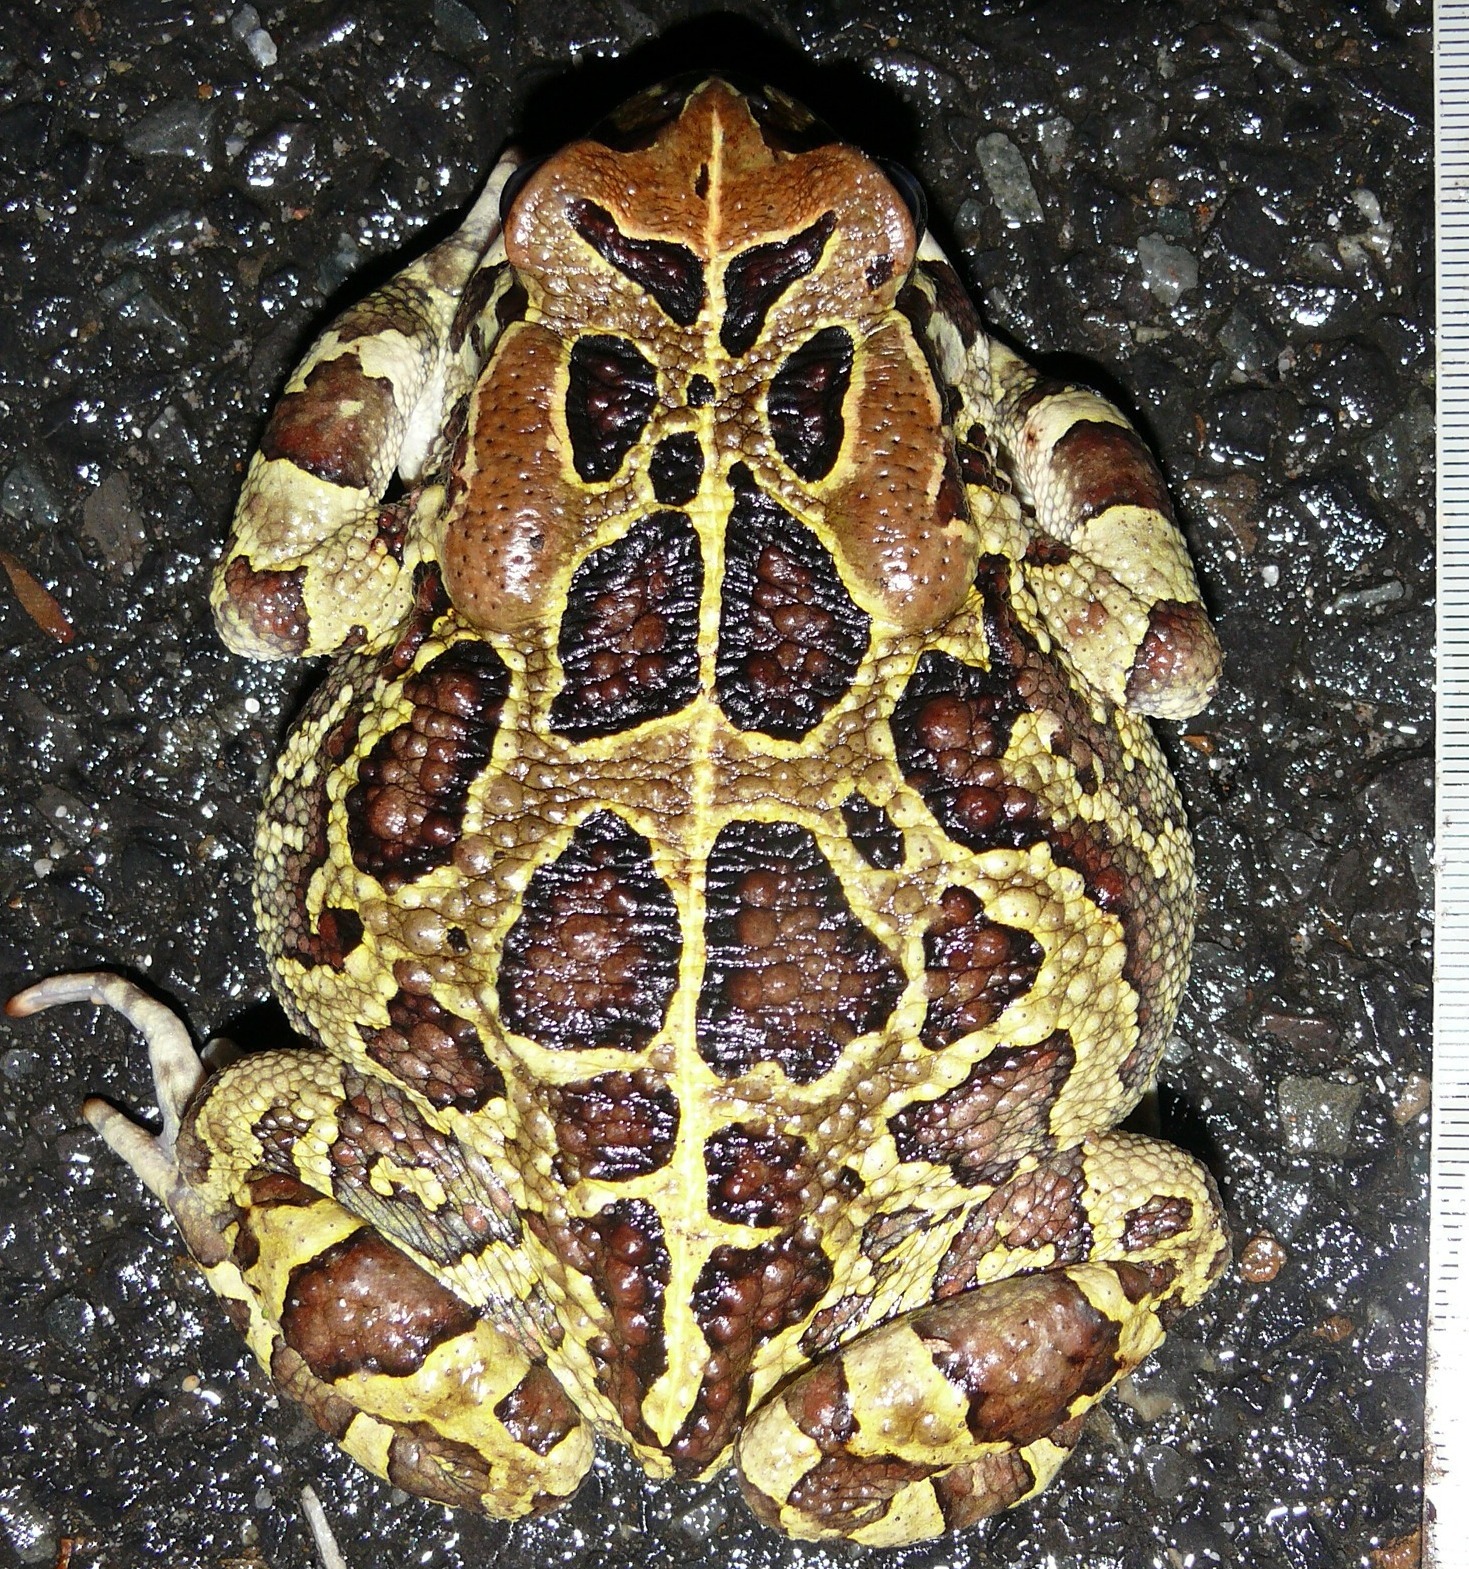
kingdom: Animalia
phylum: Chordata
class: Amphibia
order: Anura
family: Bufonidae
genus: Sclerophrys
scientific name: Sclerophrys pantherina
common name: Panther toad
